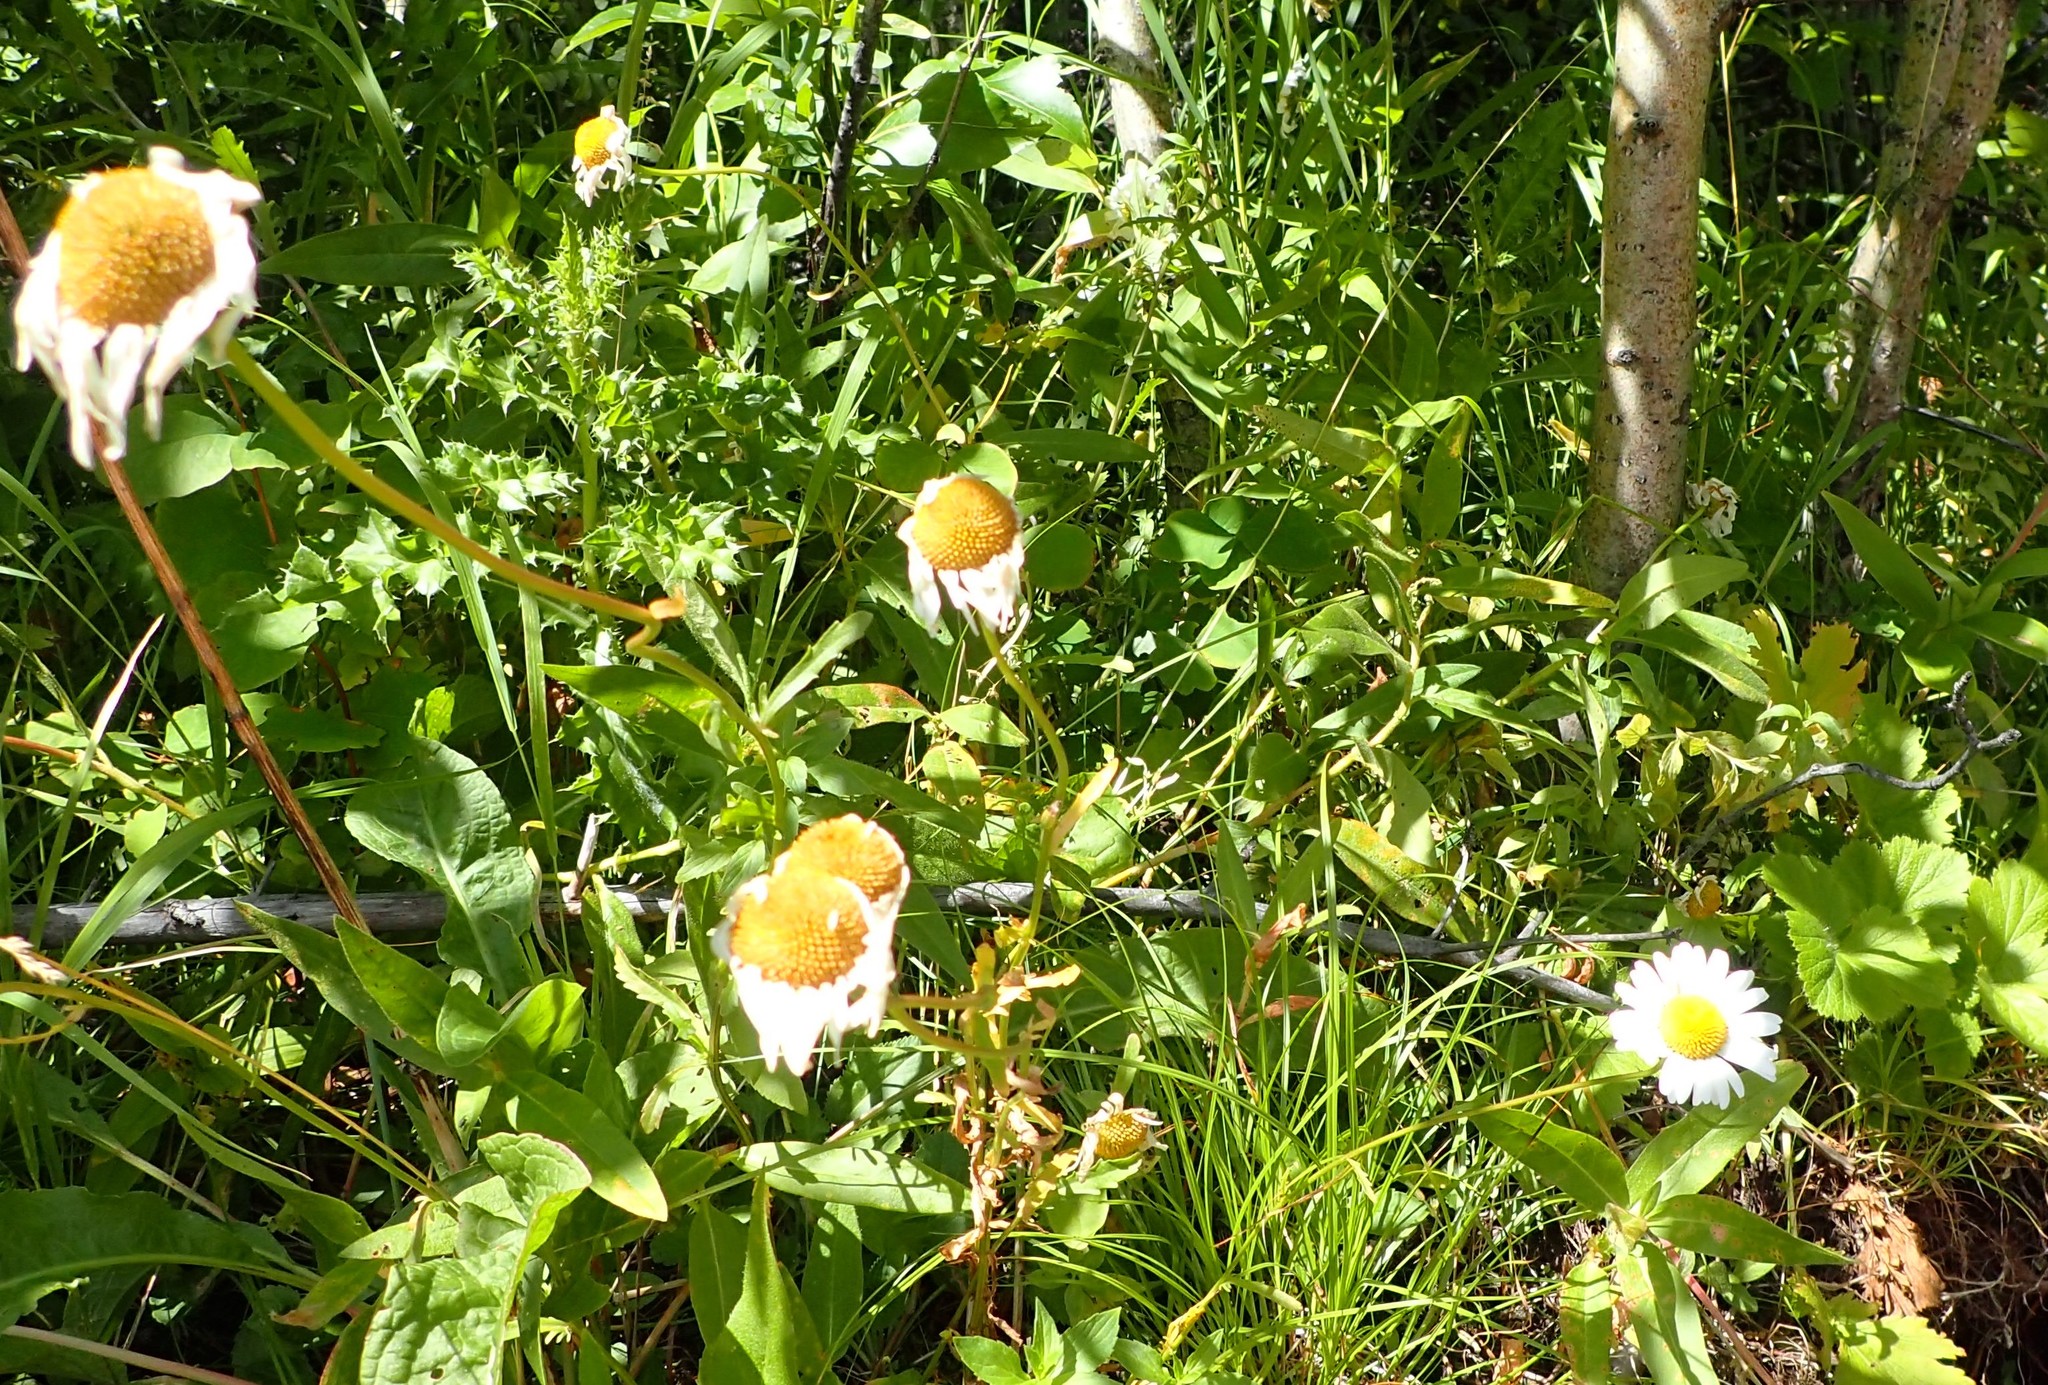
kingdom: Plantae
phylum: Tracheophyta
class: Magnoliopsida
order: Asterales
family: Asteraceae
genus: Leucanthemum
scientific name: Leucanthemum vulgare
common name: Oxeye daisy
